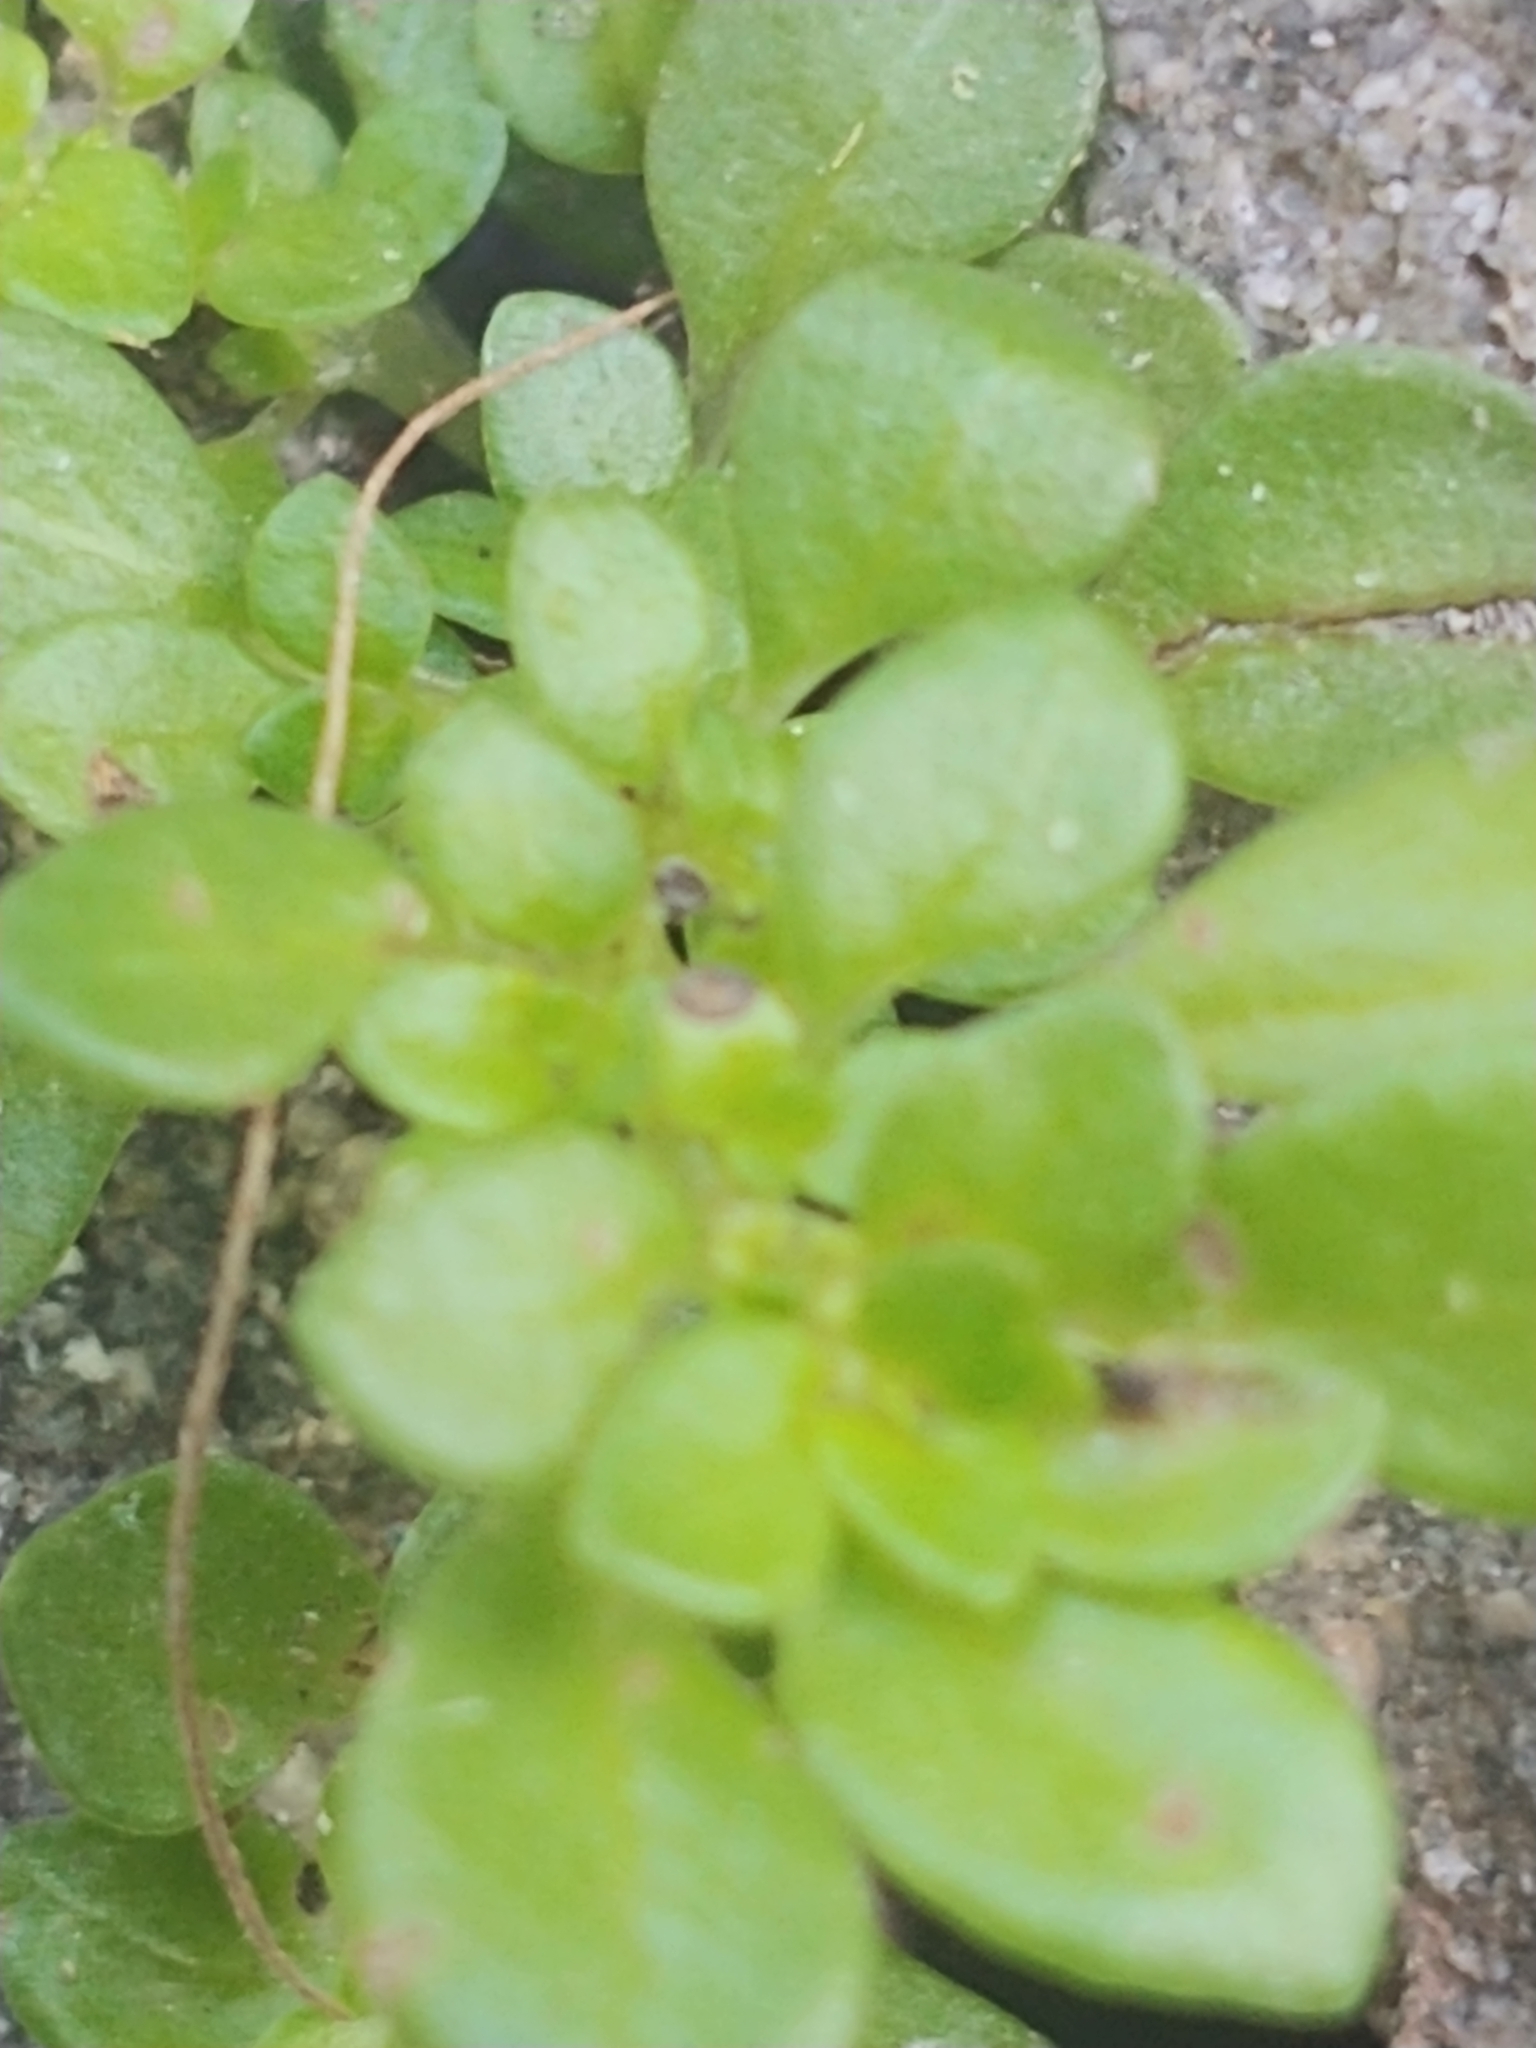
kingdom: Plantae
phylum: Tracheophyta
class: Magnoliopsida
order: Rosales
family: Urticaceae
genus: Pilea
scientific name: Pilea microphylla
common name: Artillery-plant
